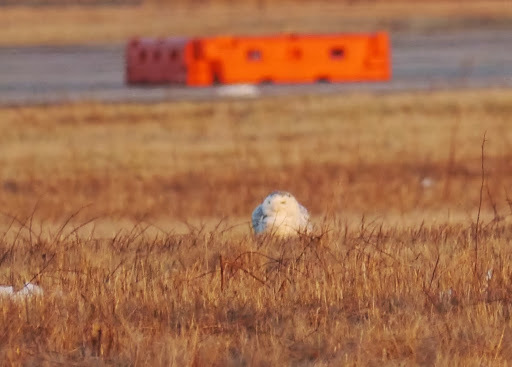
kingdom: Animalia
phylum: Chordata
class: Aves
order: Strigiformes
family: Strigidae
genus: Bubo
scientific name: Bubo scandiacus
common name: Snowy owl
